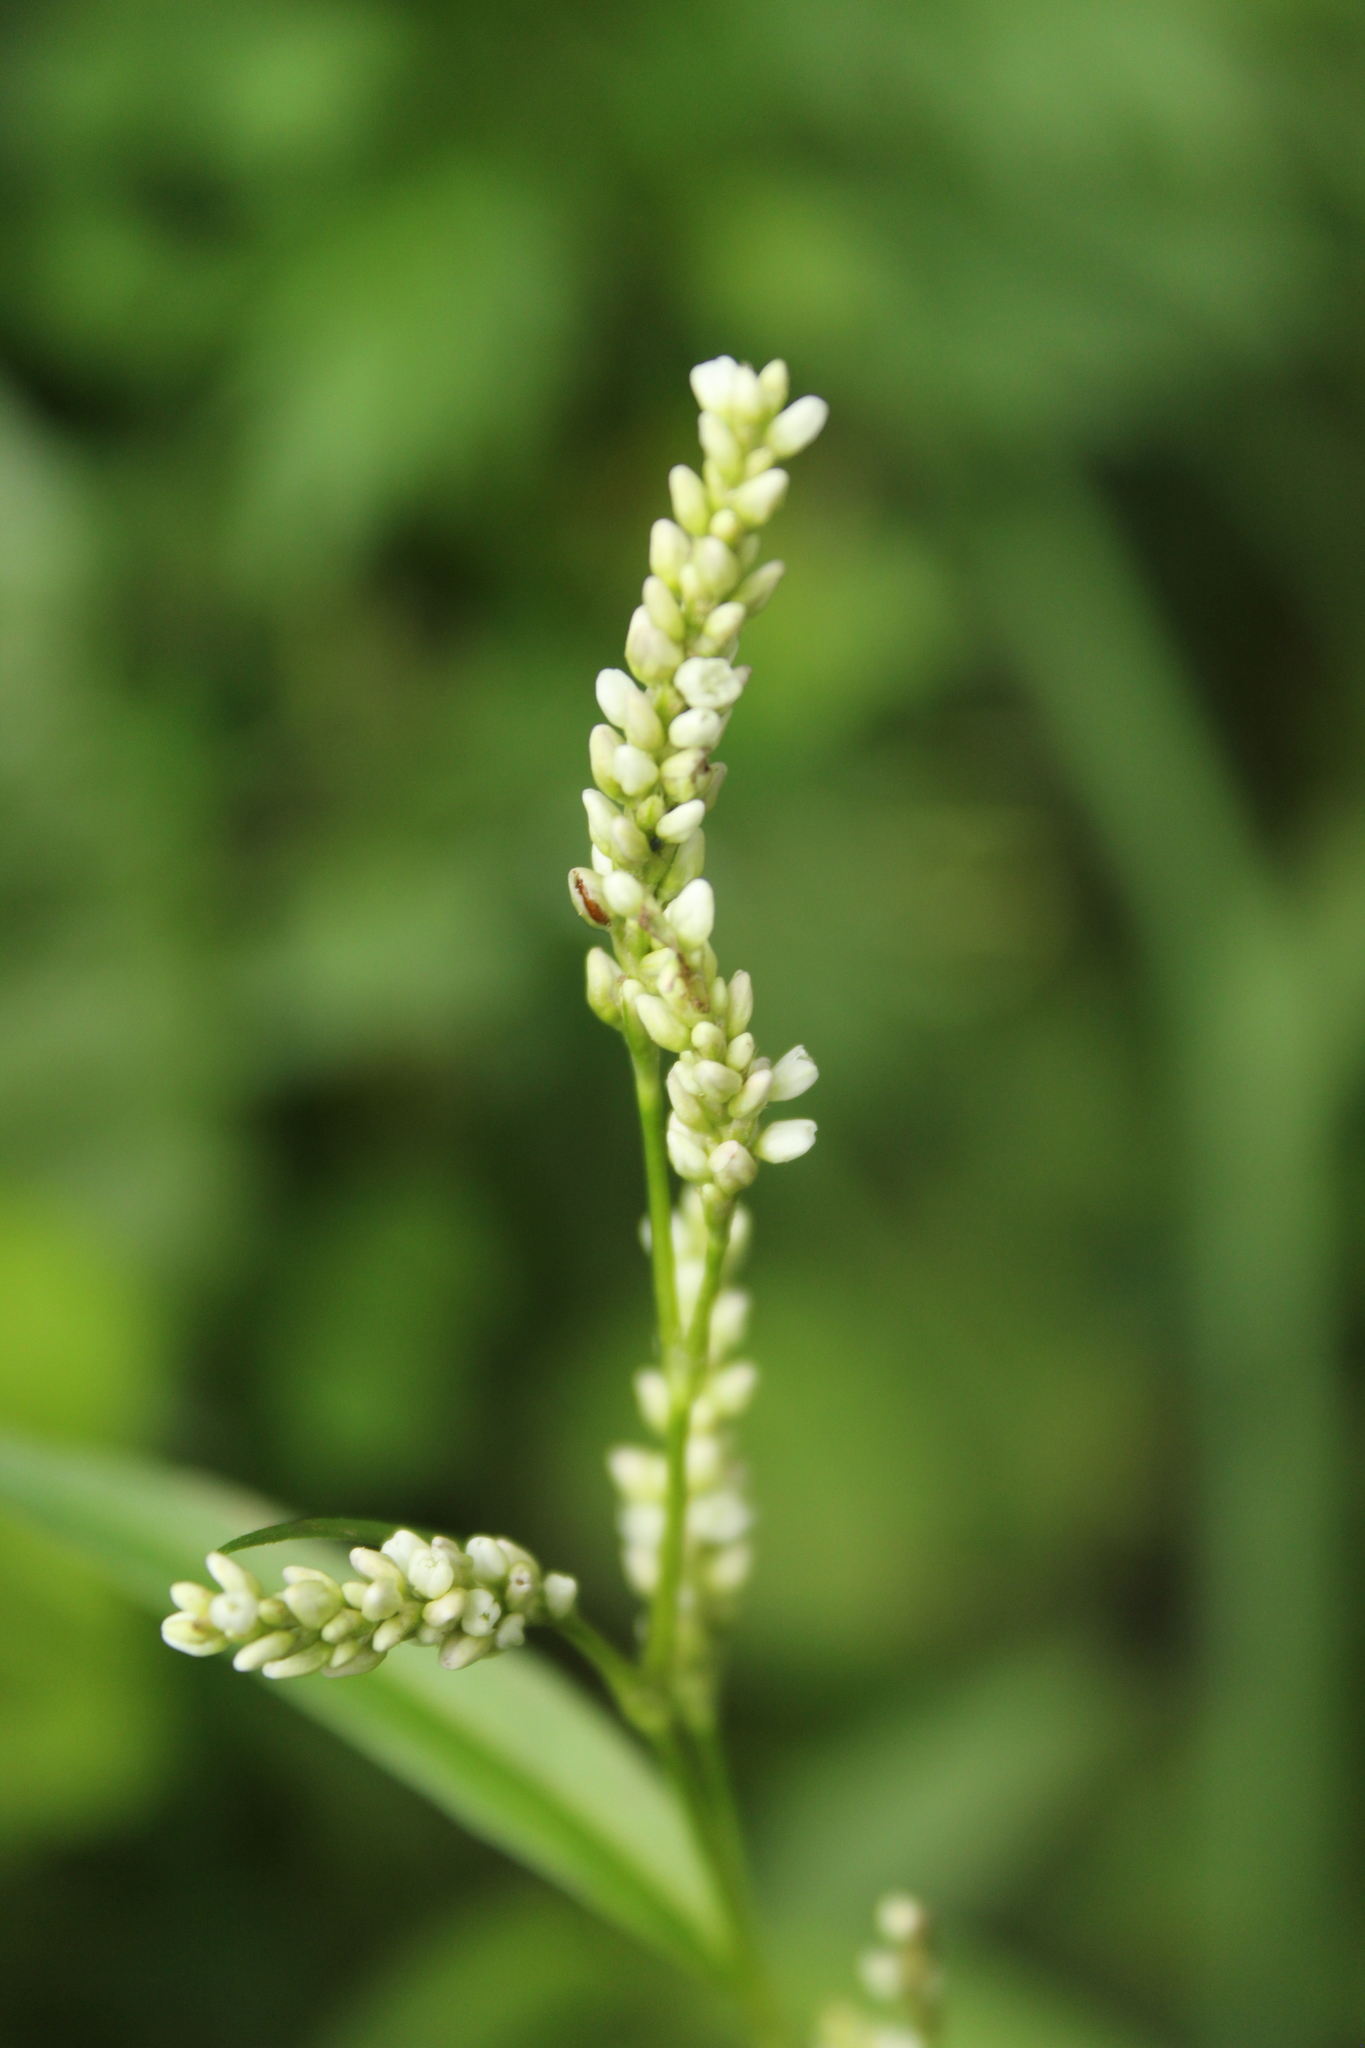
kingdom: Plantae
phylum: Tracheophyta
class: Magnoliopsida
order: Caryophyllales
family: Polygonaceae
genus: Persicaria
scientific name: Persicaria maculosa
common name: Redshank
